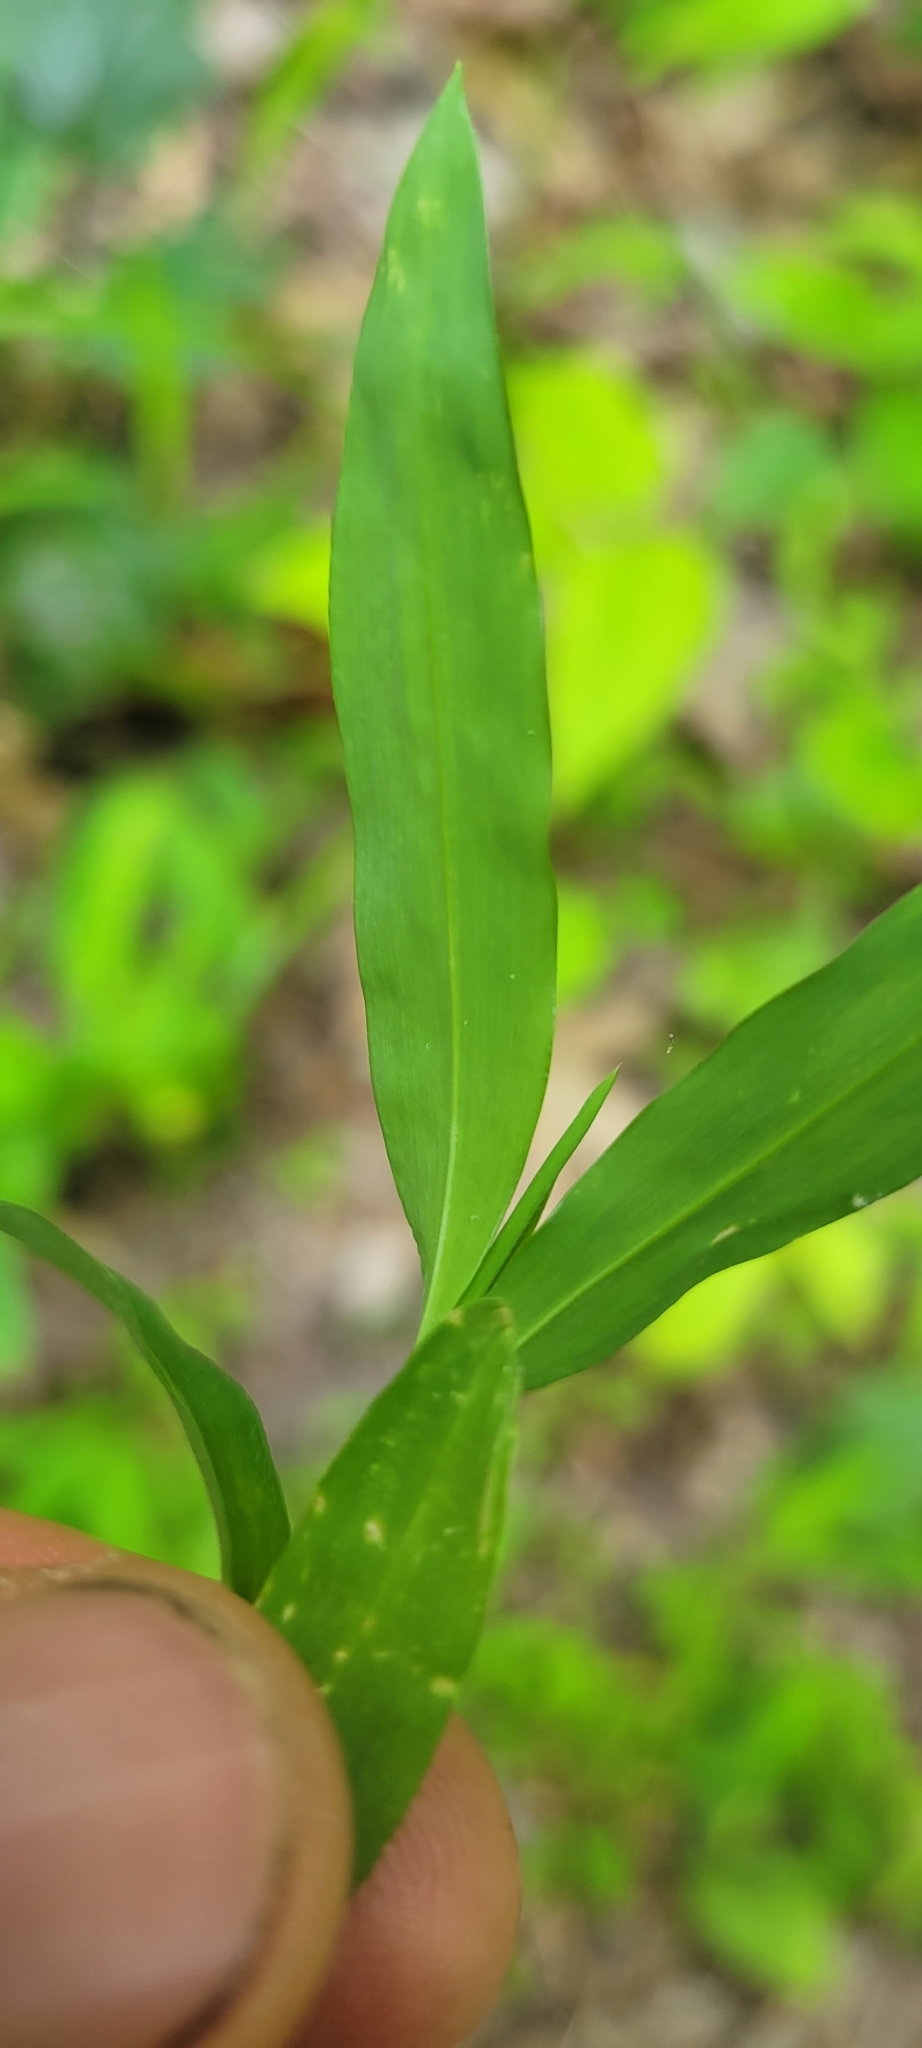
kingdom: Plantae
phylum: Tracheophyta
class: Liliopsida
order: Poales
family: Poaceae
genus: Microstegium
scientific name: Microstegium vimineum
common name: Japanese stiltgrass
